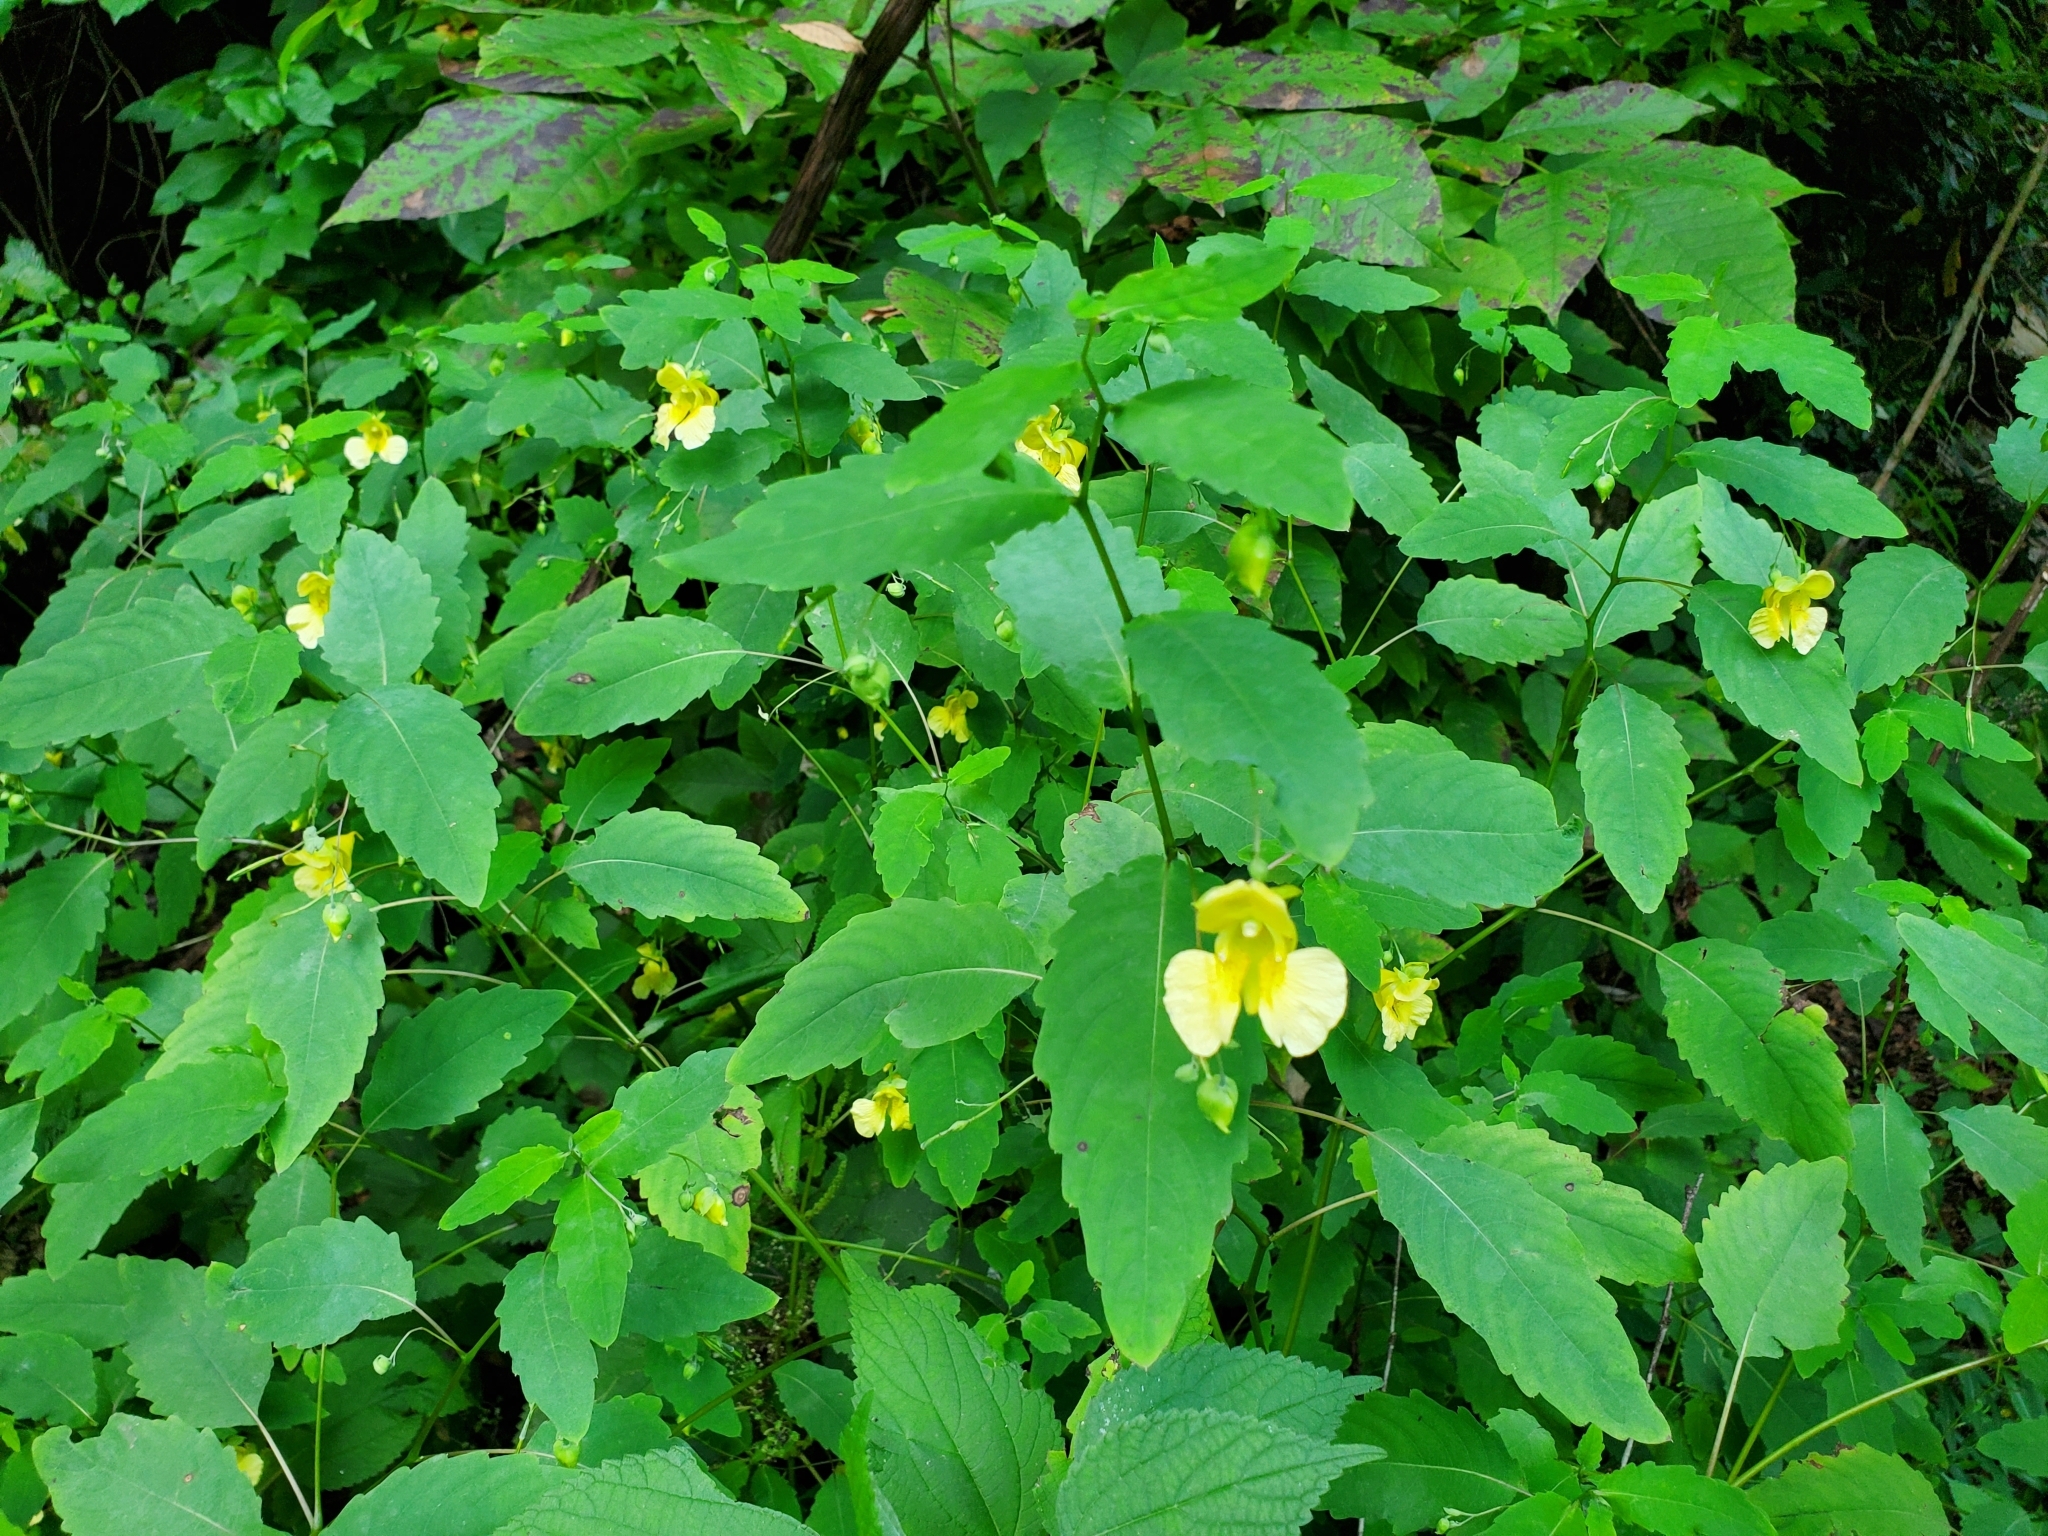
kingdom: Plantae
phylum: Tracheophyta
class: Magnoliopsida
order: Ericales
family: Balsaminaceae
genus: Impatiens
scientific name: Impatiens pallida
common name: Pale snapweed
